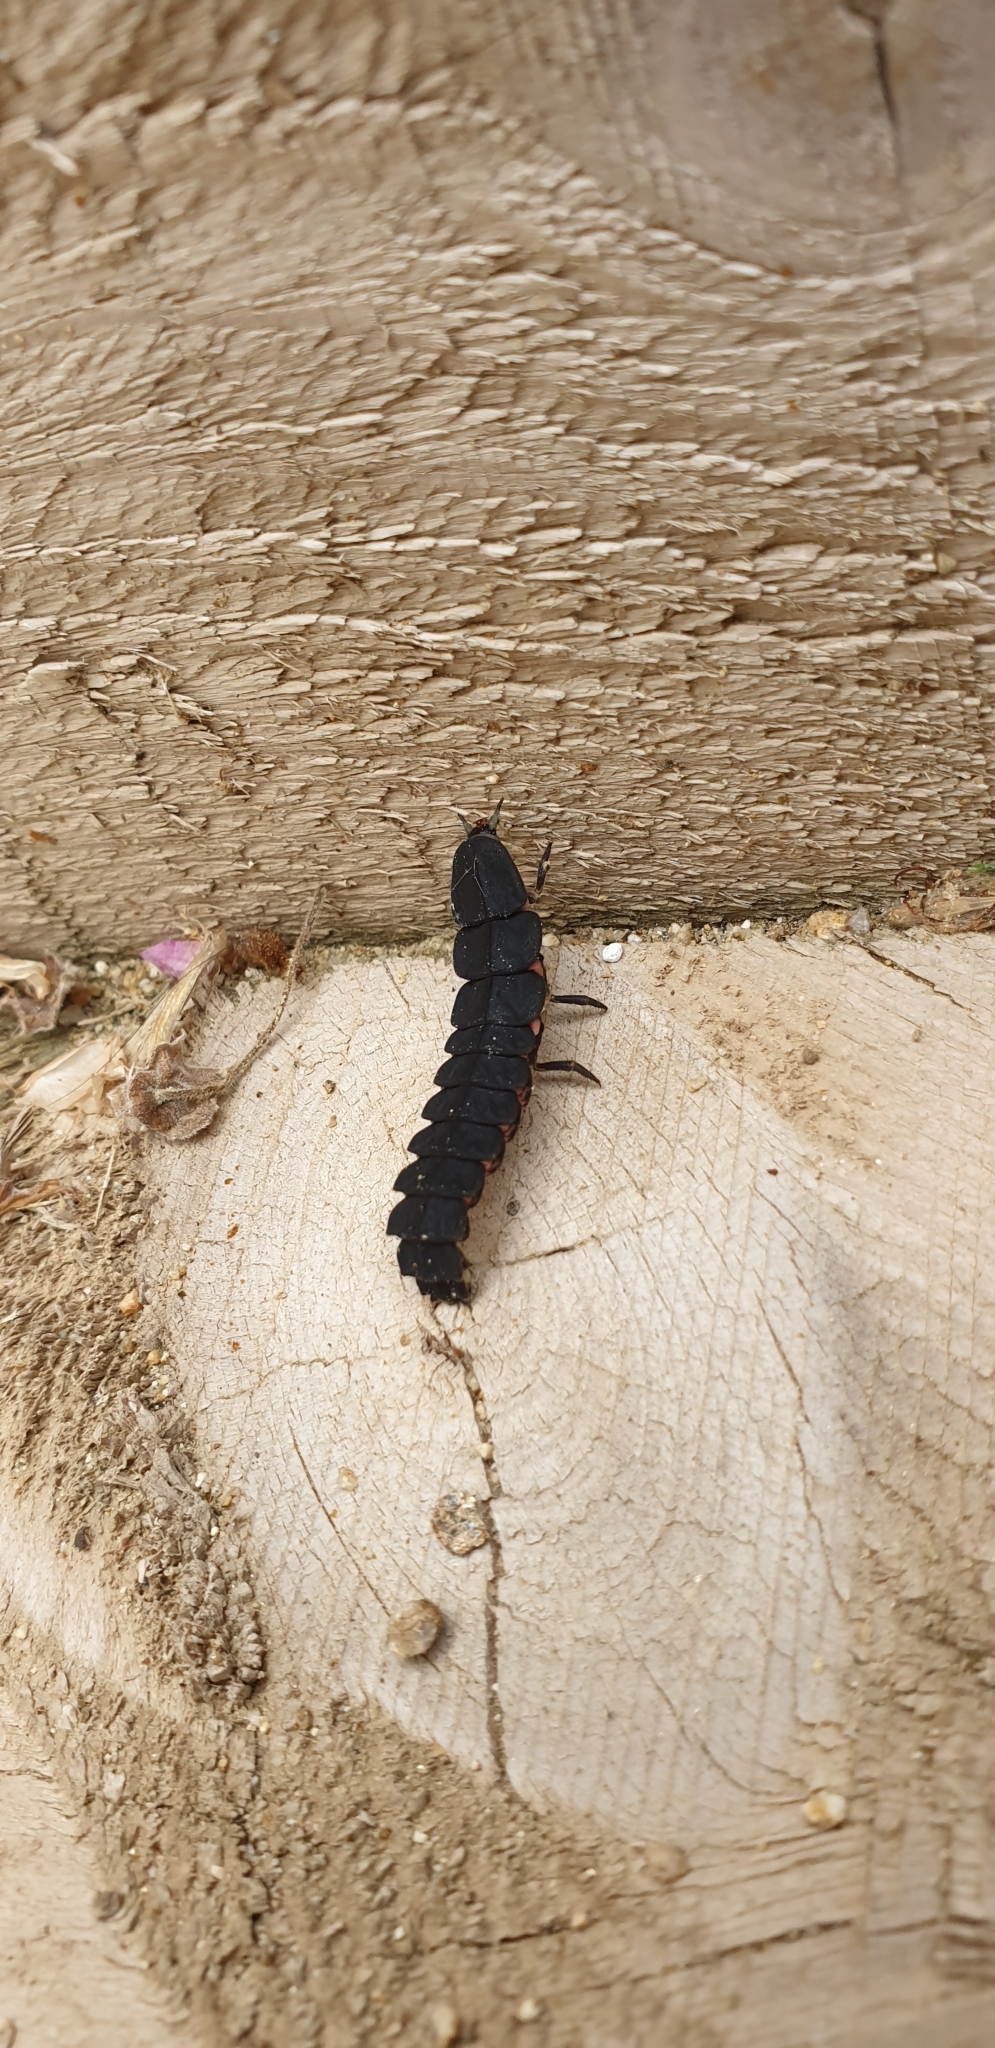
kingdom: Animalia
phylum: Arthropoda
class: Insecta
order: Coleoptera
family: Lampyridae
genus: Nyctophila
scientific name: Nyctophila reichii
